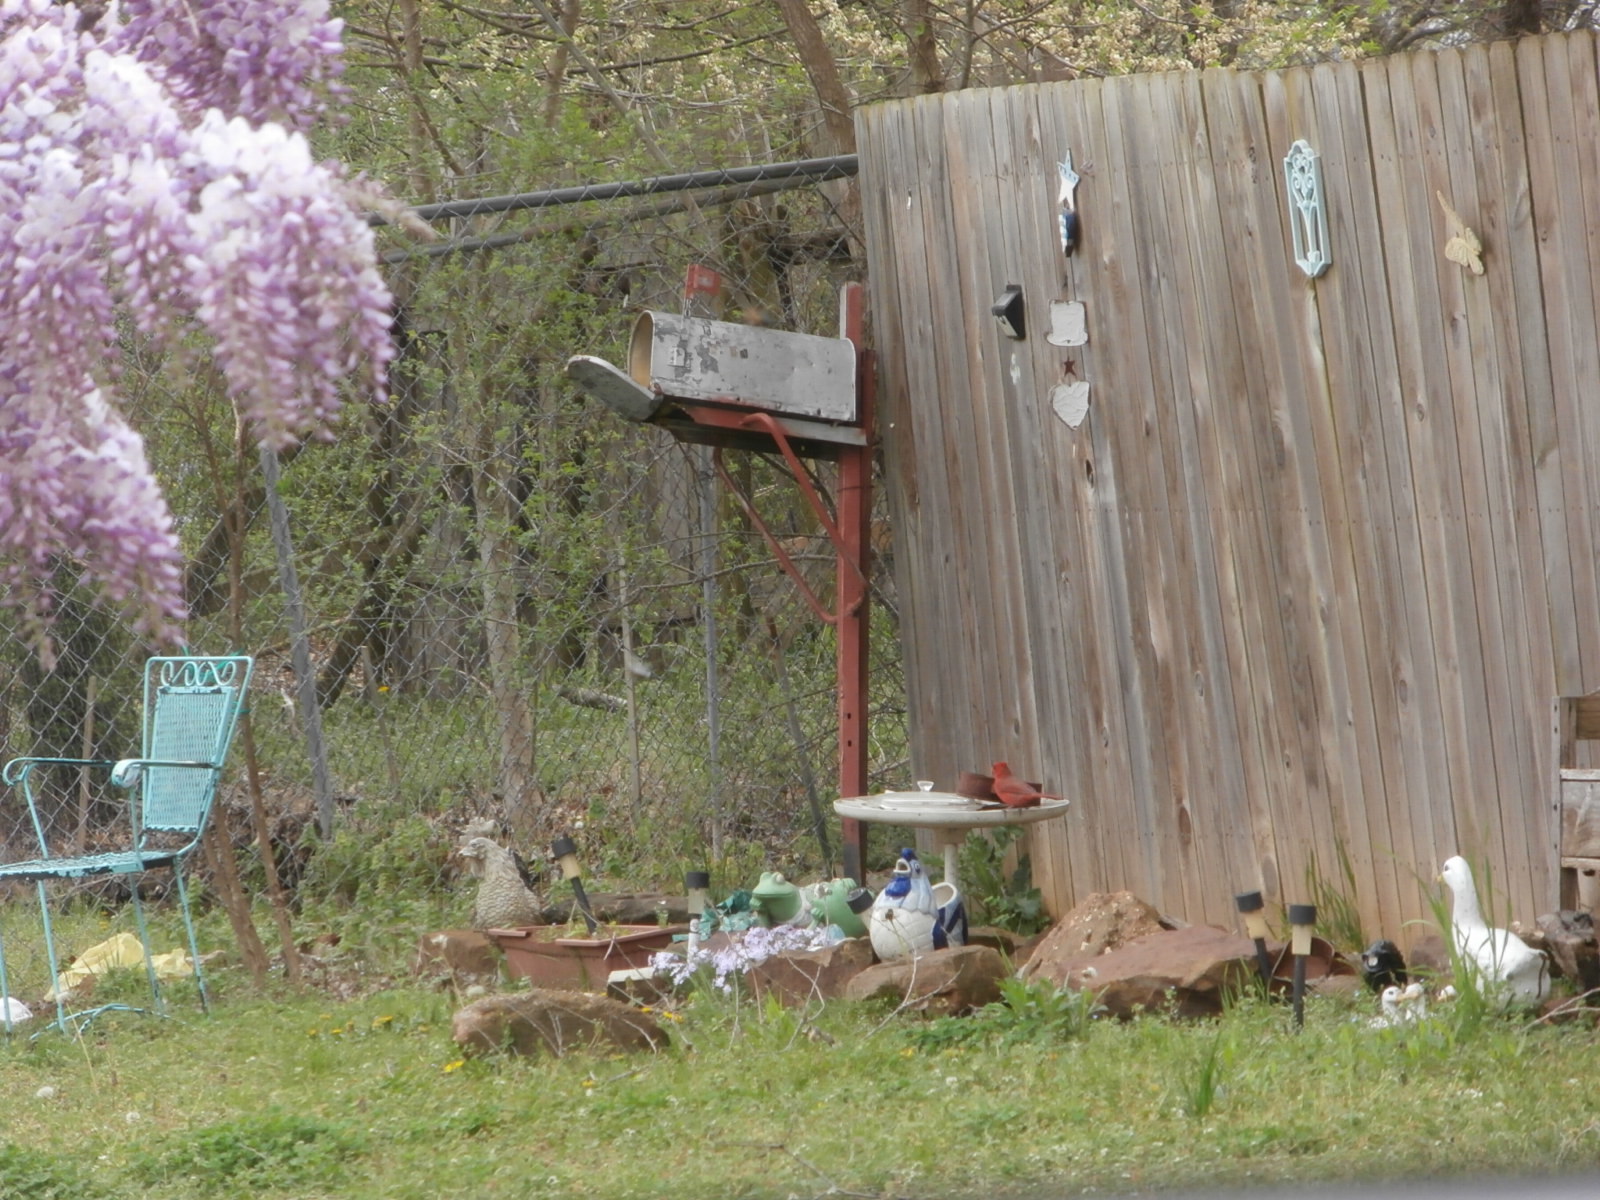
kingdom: Animalia
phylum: Chordata
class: Aves
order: Passeriformes
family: Cardinalidae
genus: Cardinalis
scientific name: Cardinalis cardinalis
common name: Northern cardinal
